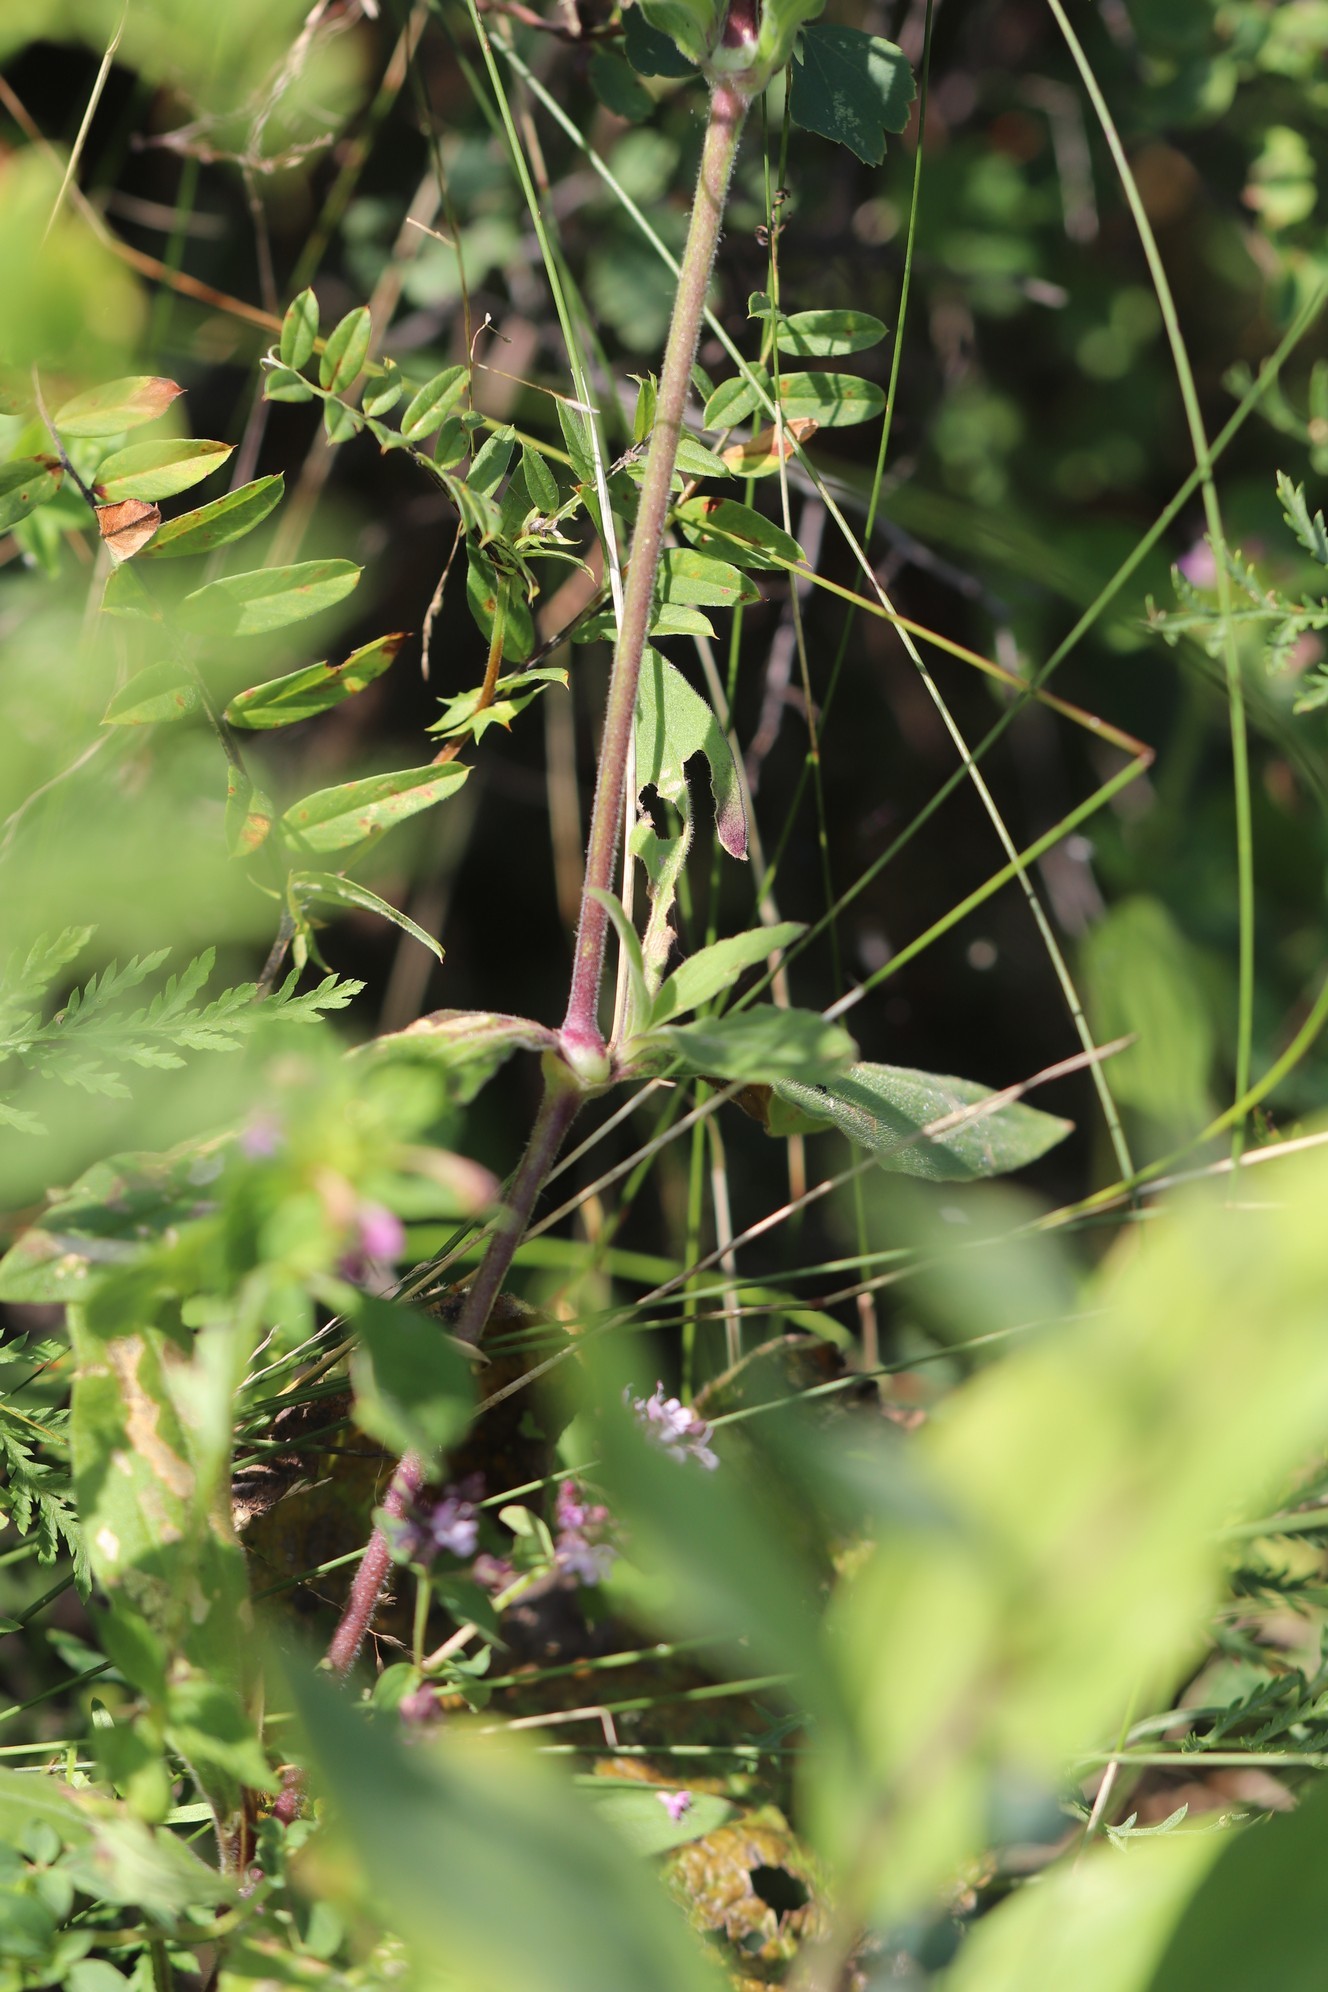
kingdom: Plantae
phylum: Tracheophyta
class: Magnoliopsida
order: Caryophyllales
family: Caryophyllaceae
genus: Silene
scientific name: Silene latifolia
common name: White campion
